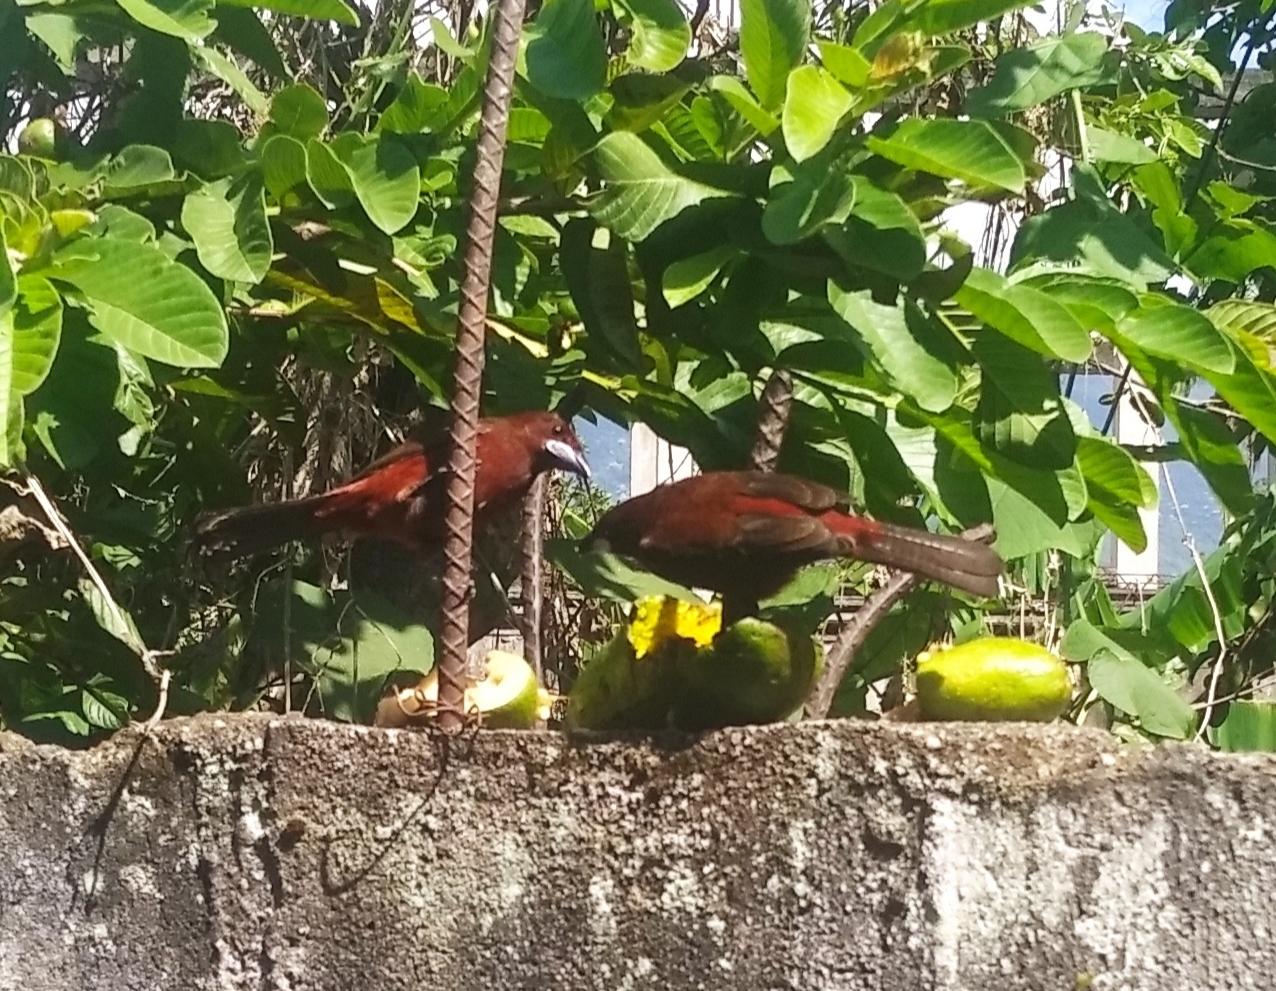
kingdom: Animalia
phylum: Chordata
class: Aves
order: Passeriformes
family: Thraupidae
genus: Ramphocelus
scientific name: Ramphocelus carbo
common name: Silver-beaked tanager
